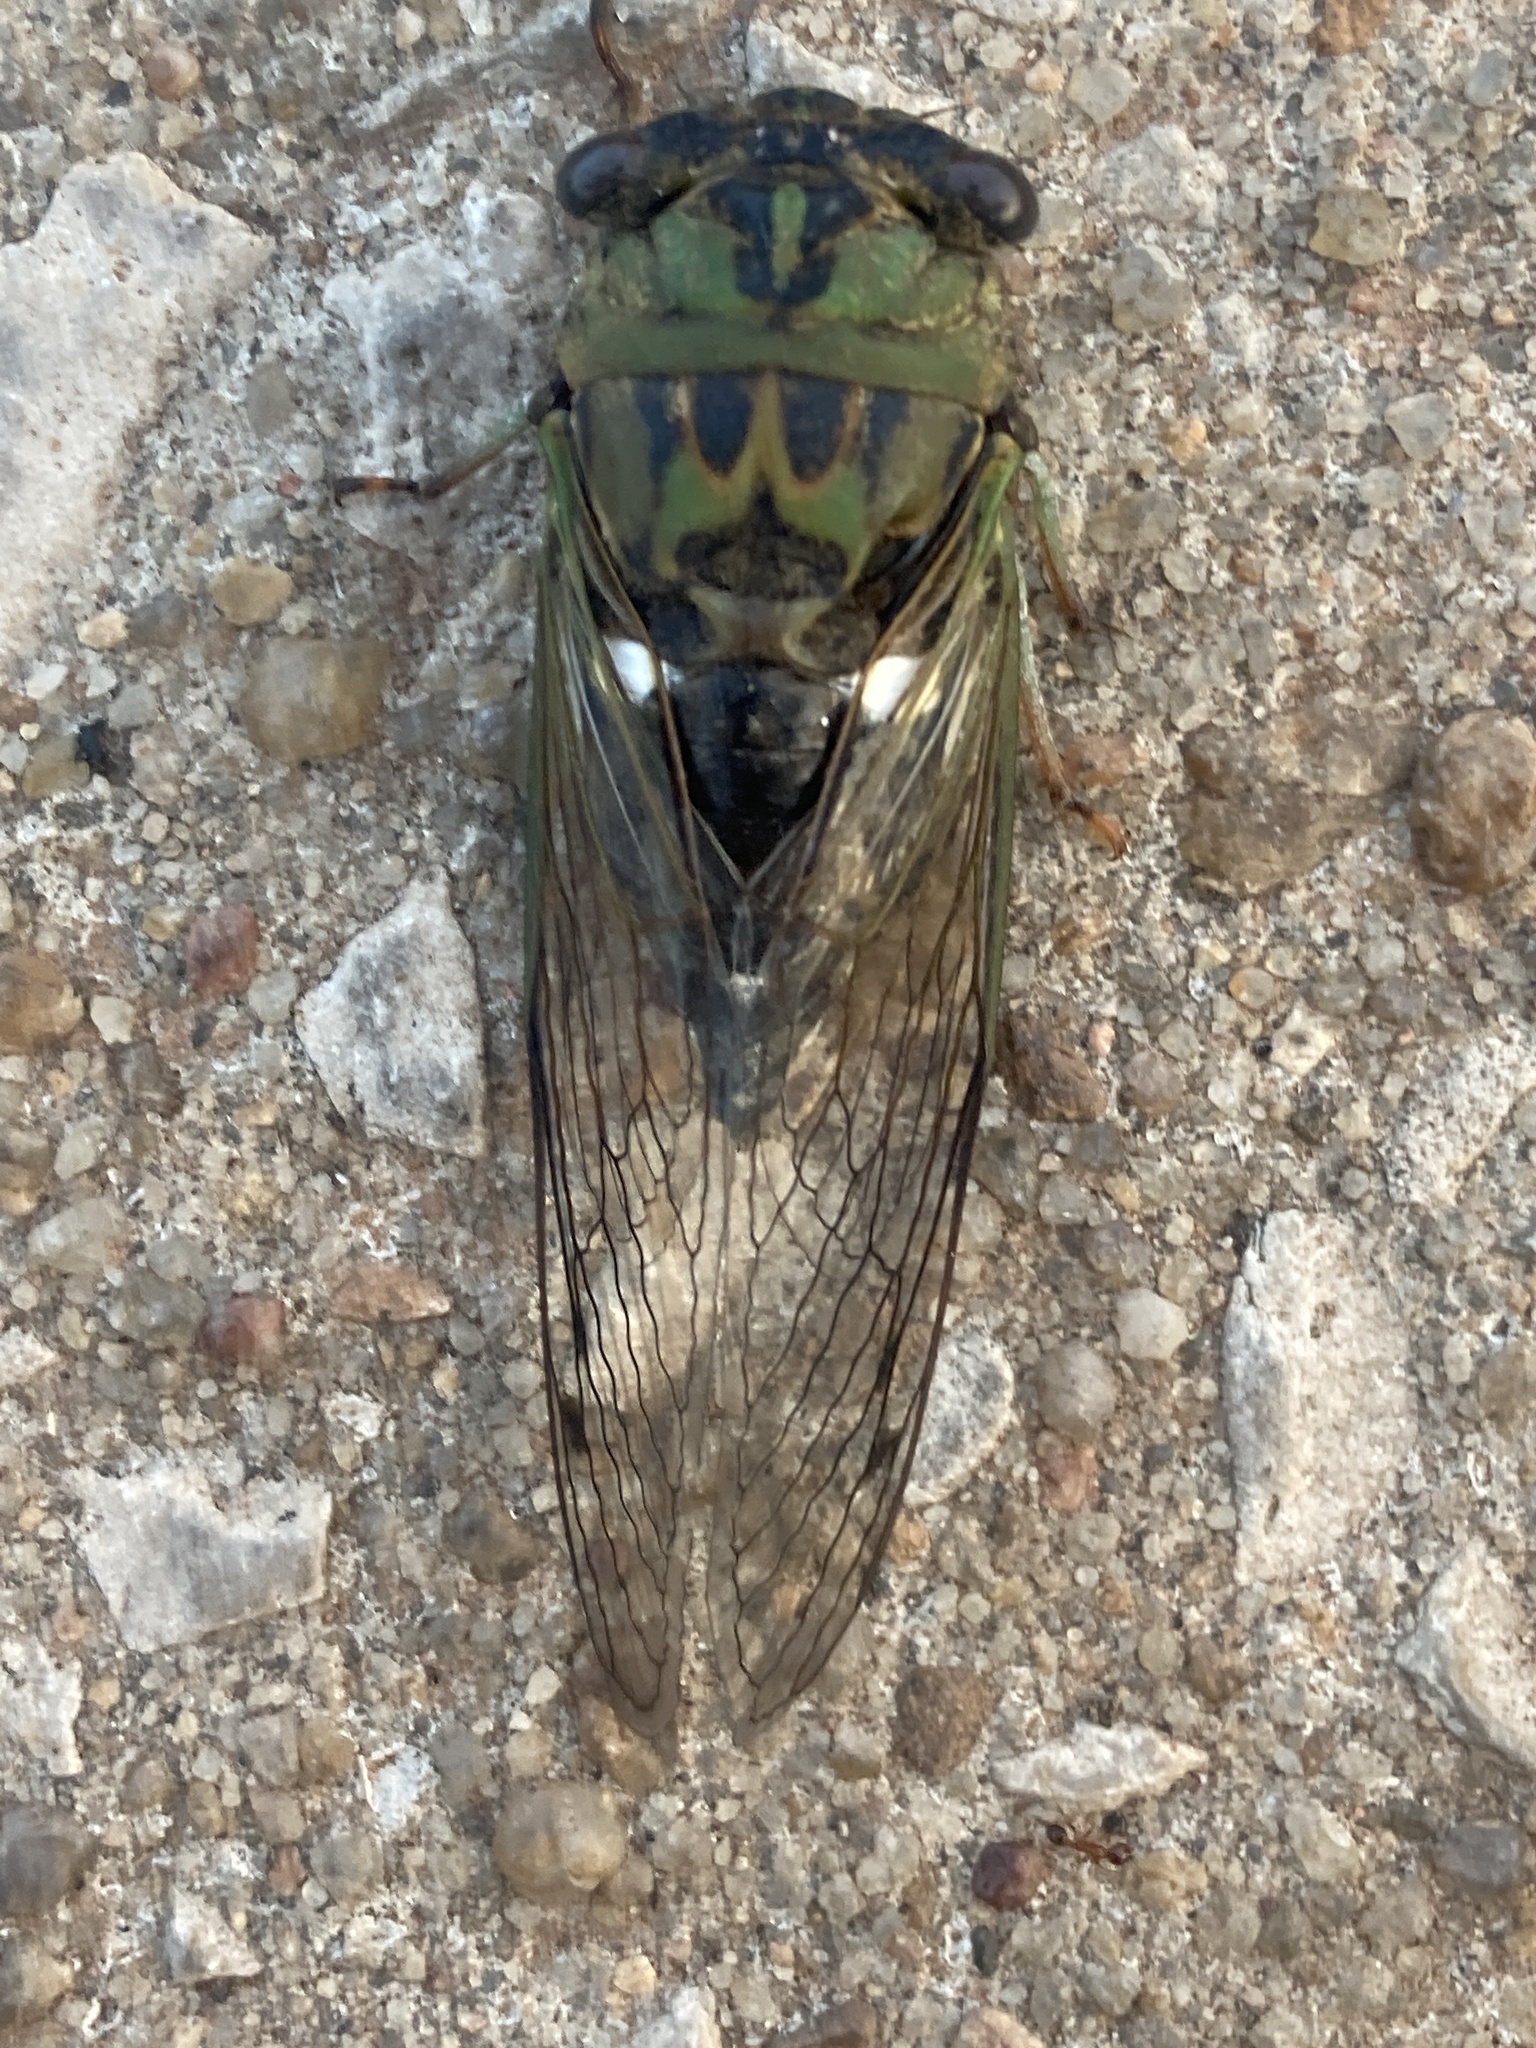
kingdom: Animalia
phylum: Arthropoda
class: Insecta
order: Hemiptera
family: Cicadidae
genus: Neotibicen
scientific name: Neotibicen pruinosus
